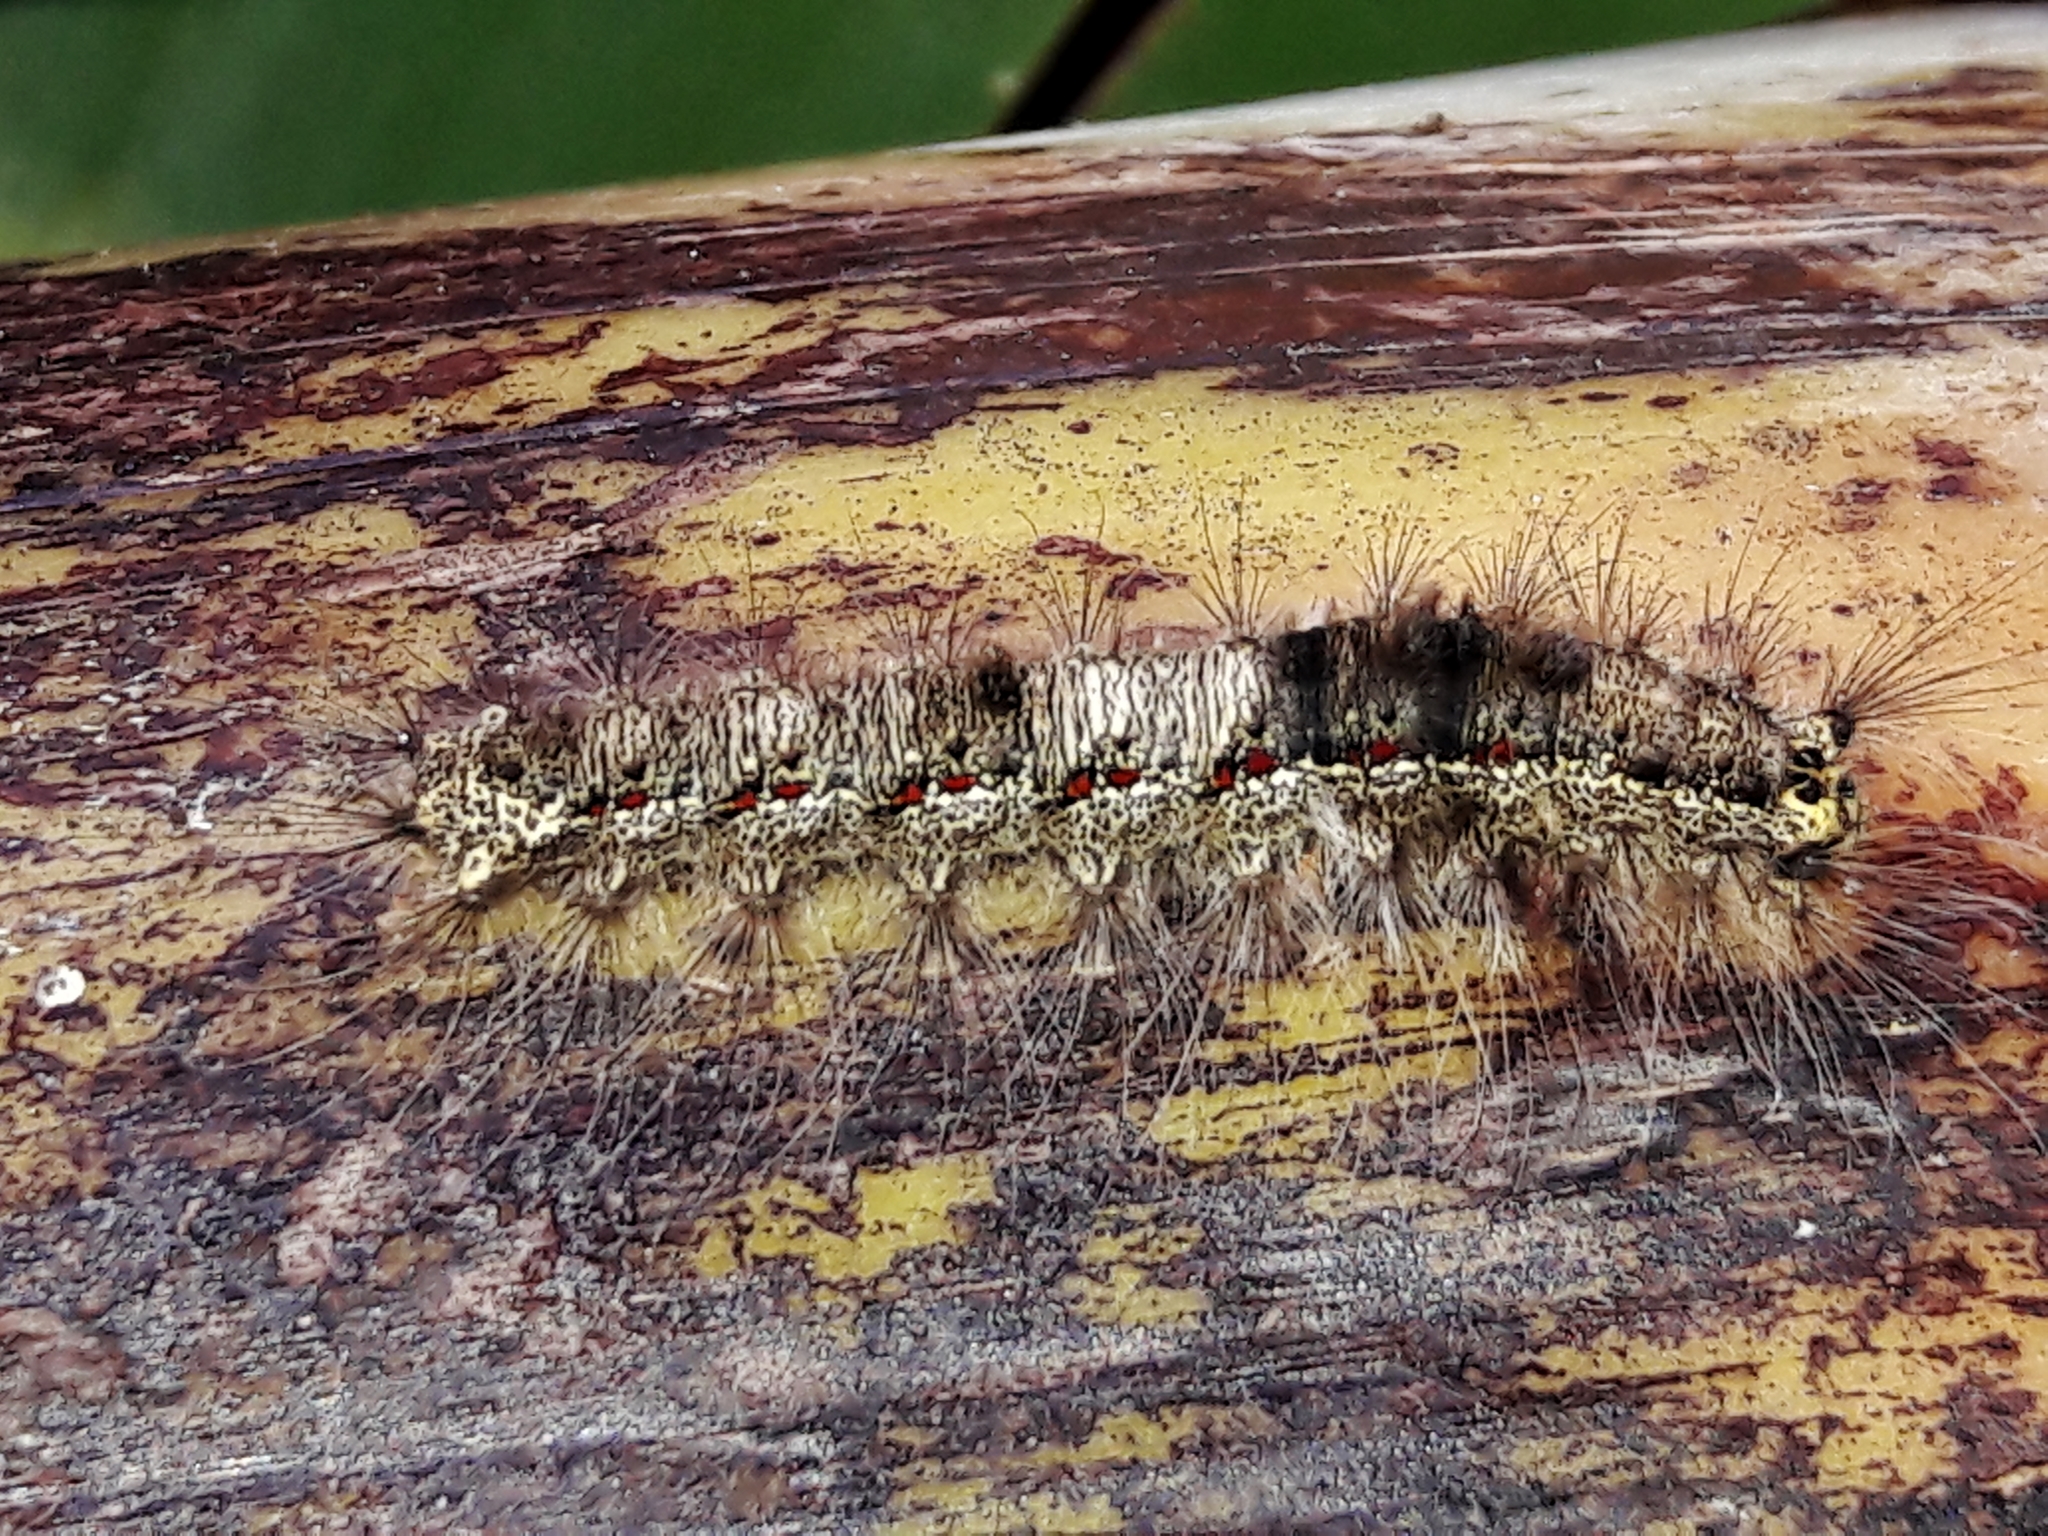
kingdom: Animalia
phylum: Arthropoda
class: Insecta
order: Lepidoptera
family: Lasiocampidae
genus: Euglyphis
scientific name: Euglyphis submarginalis
